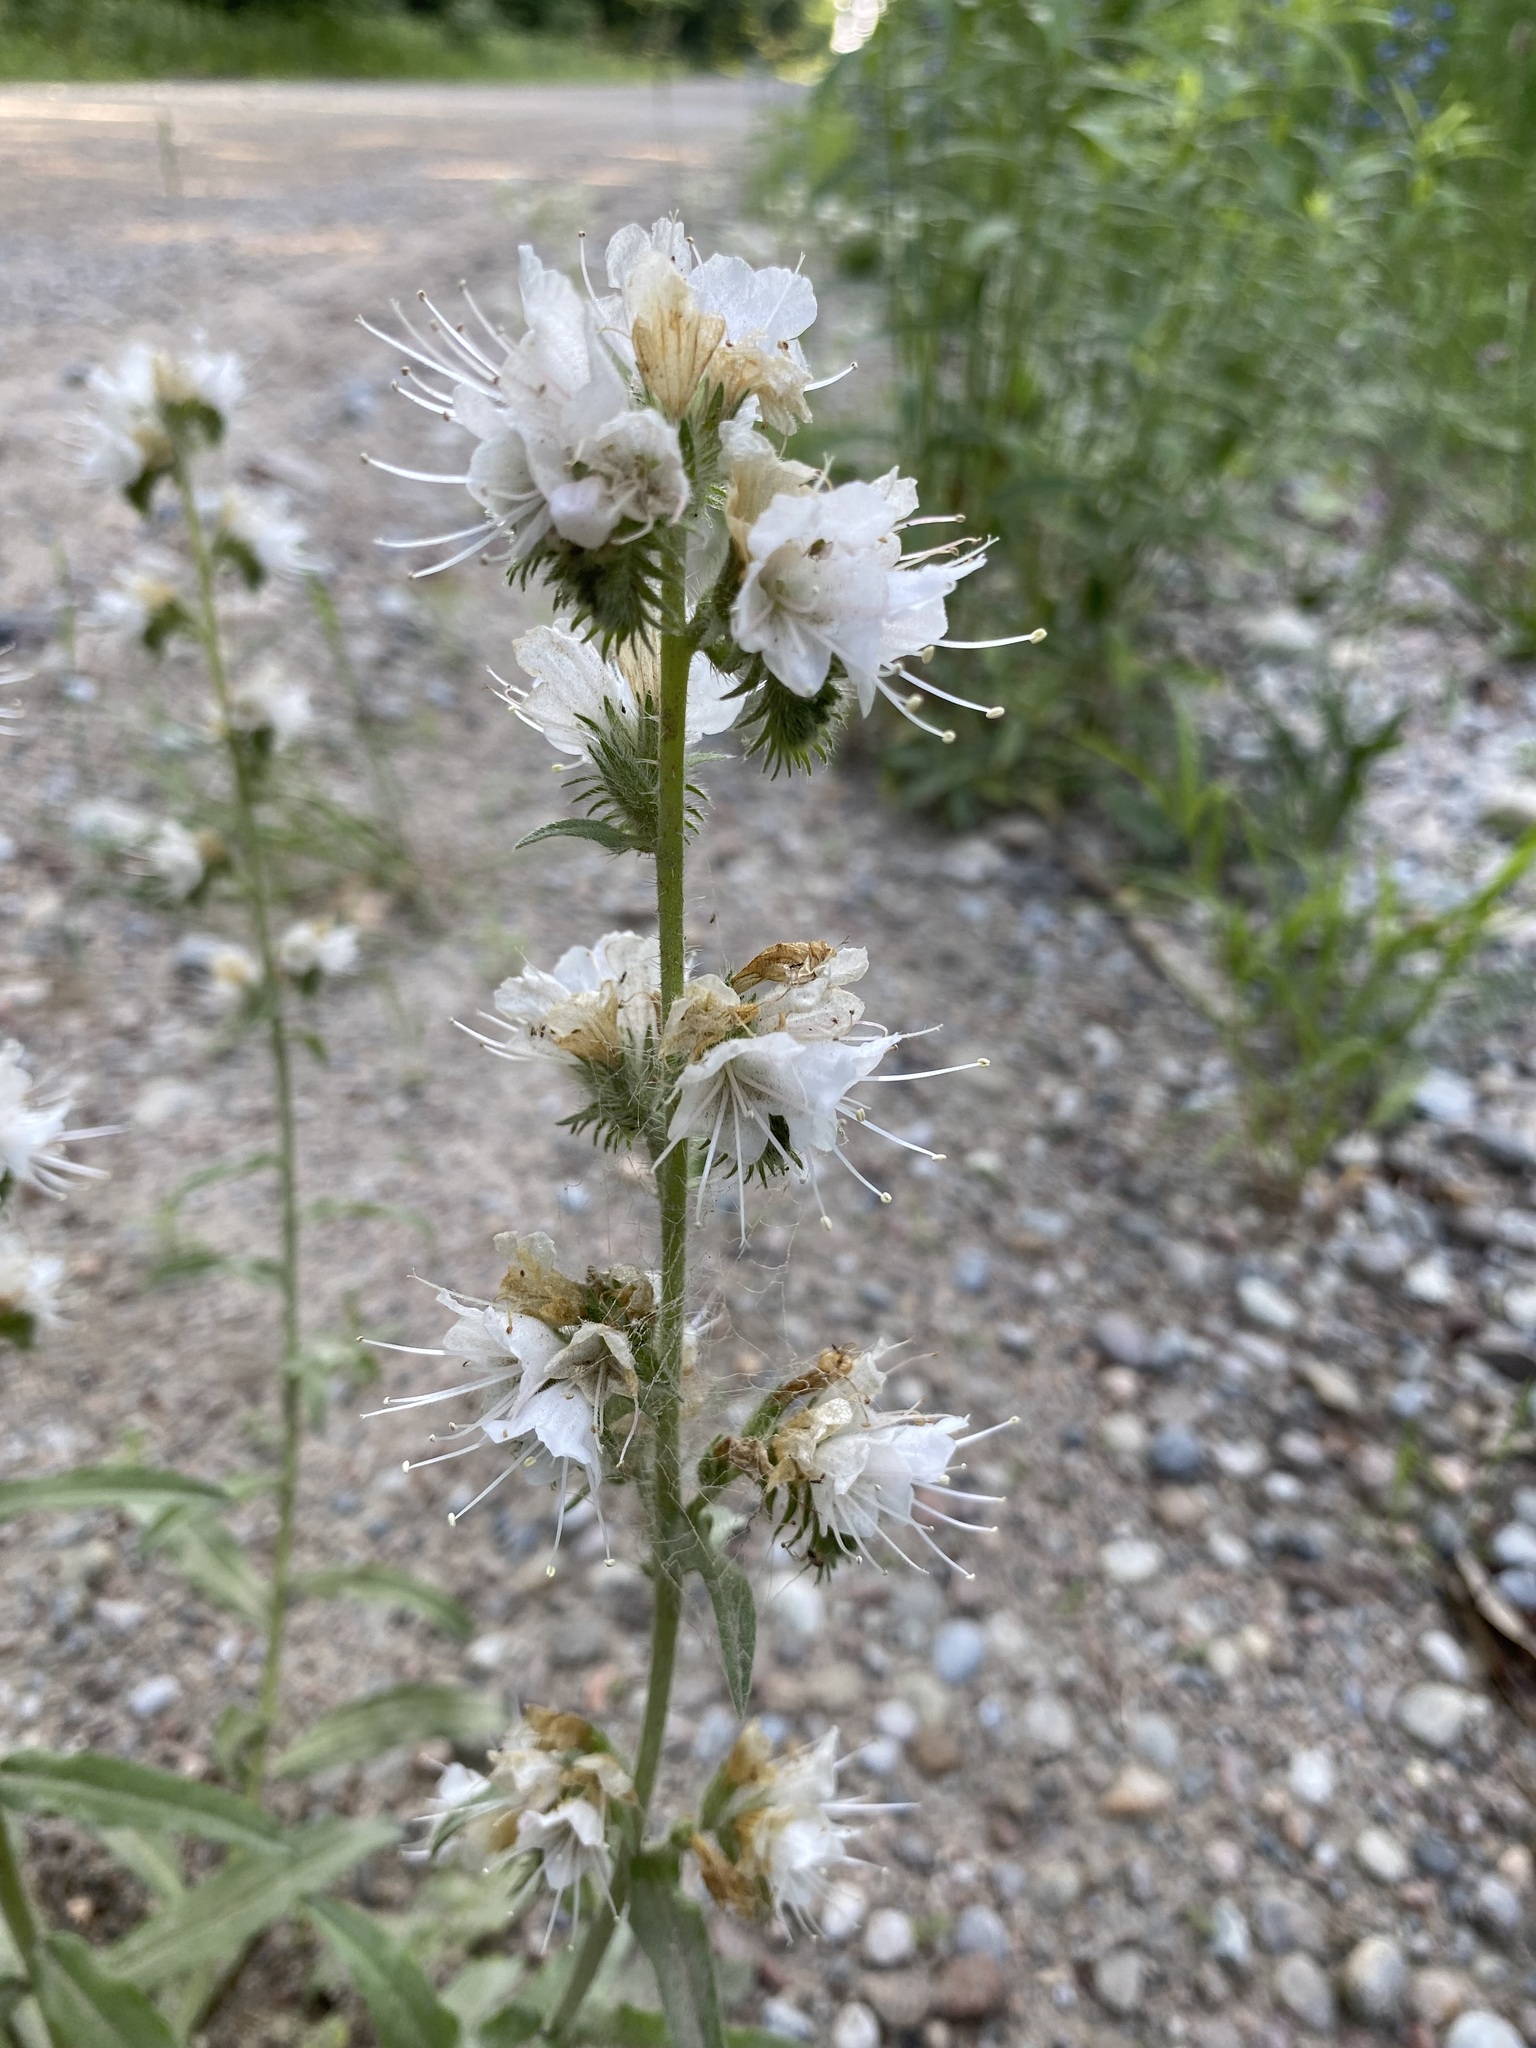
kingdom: Plantae
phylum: Tracheophyta
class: Magnoliopsida
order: Boraginales
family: Boraginaceae
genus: Echium
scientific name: Echium vulgare
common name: Common viper's bugloss
